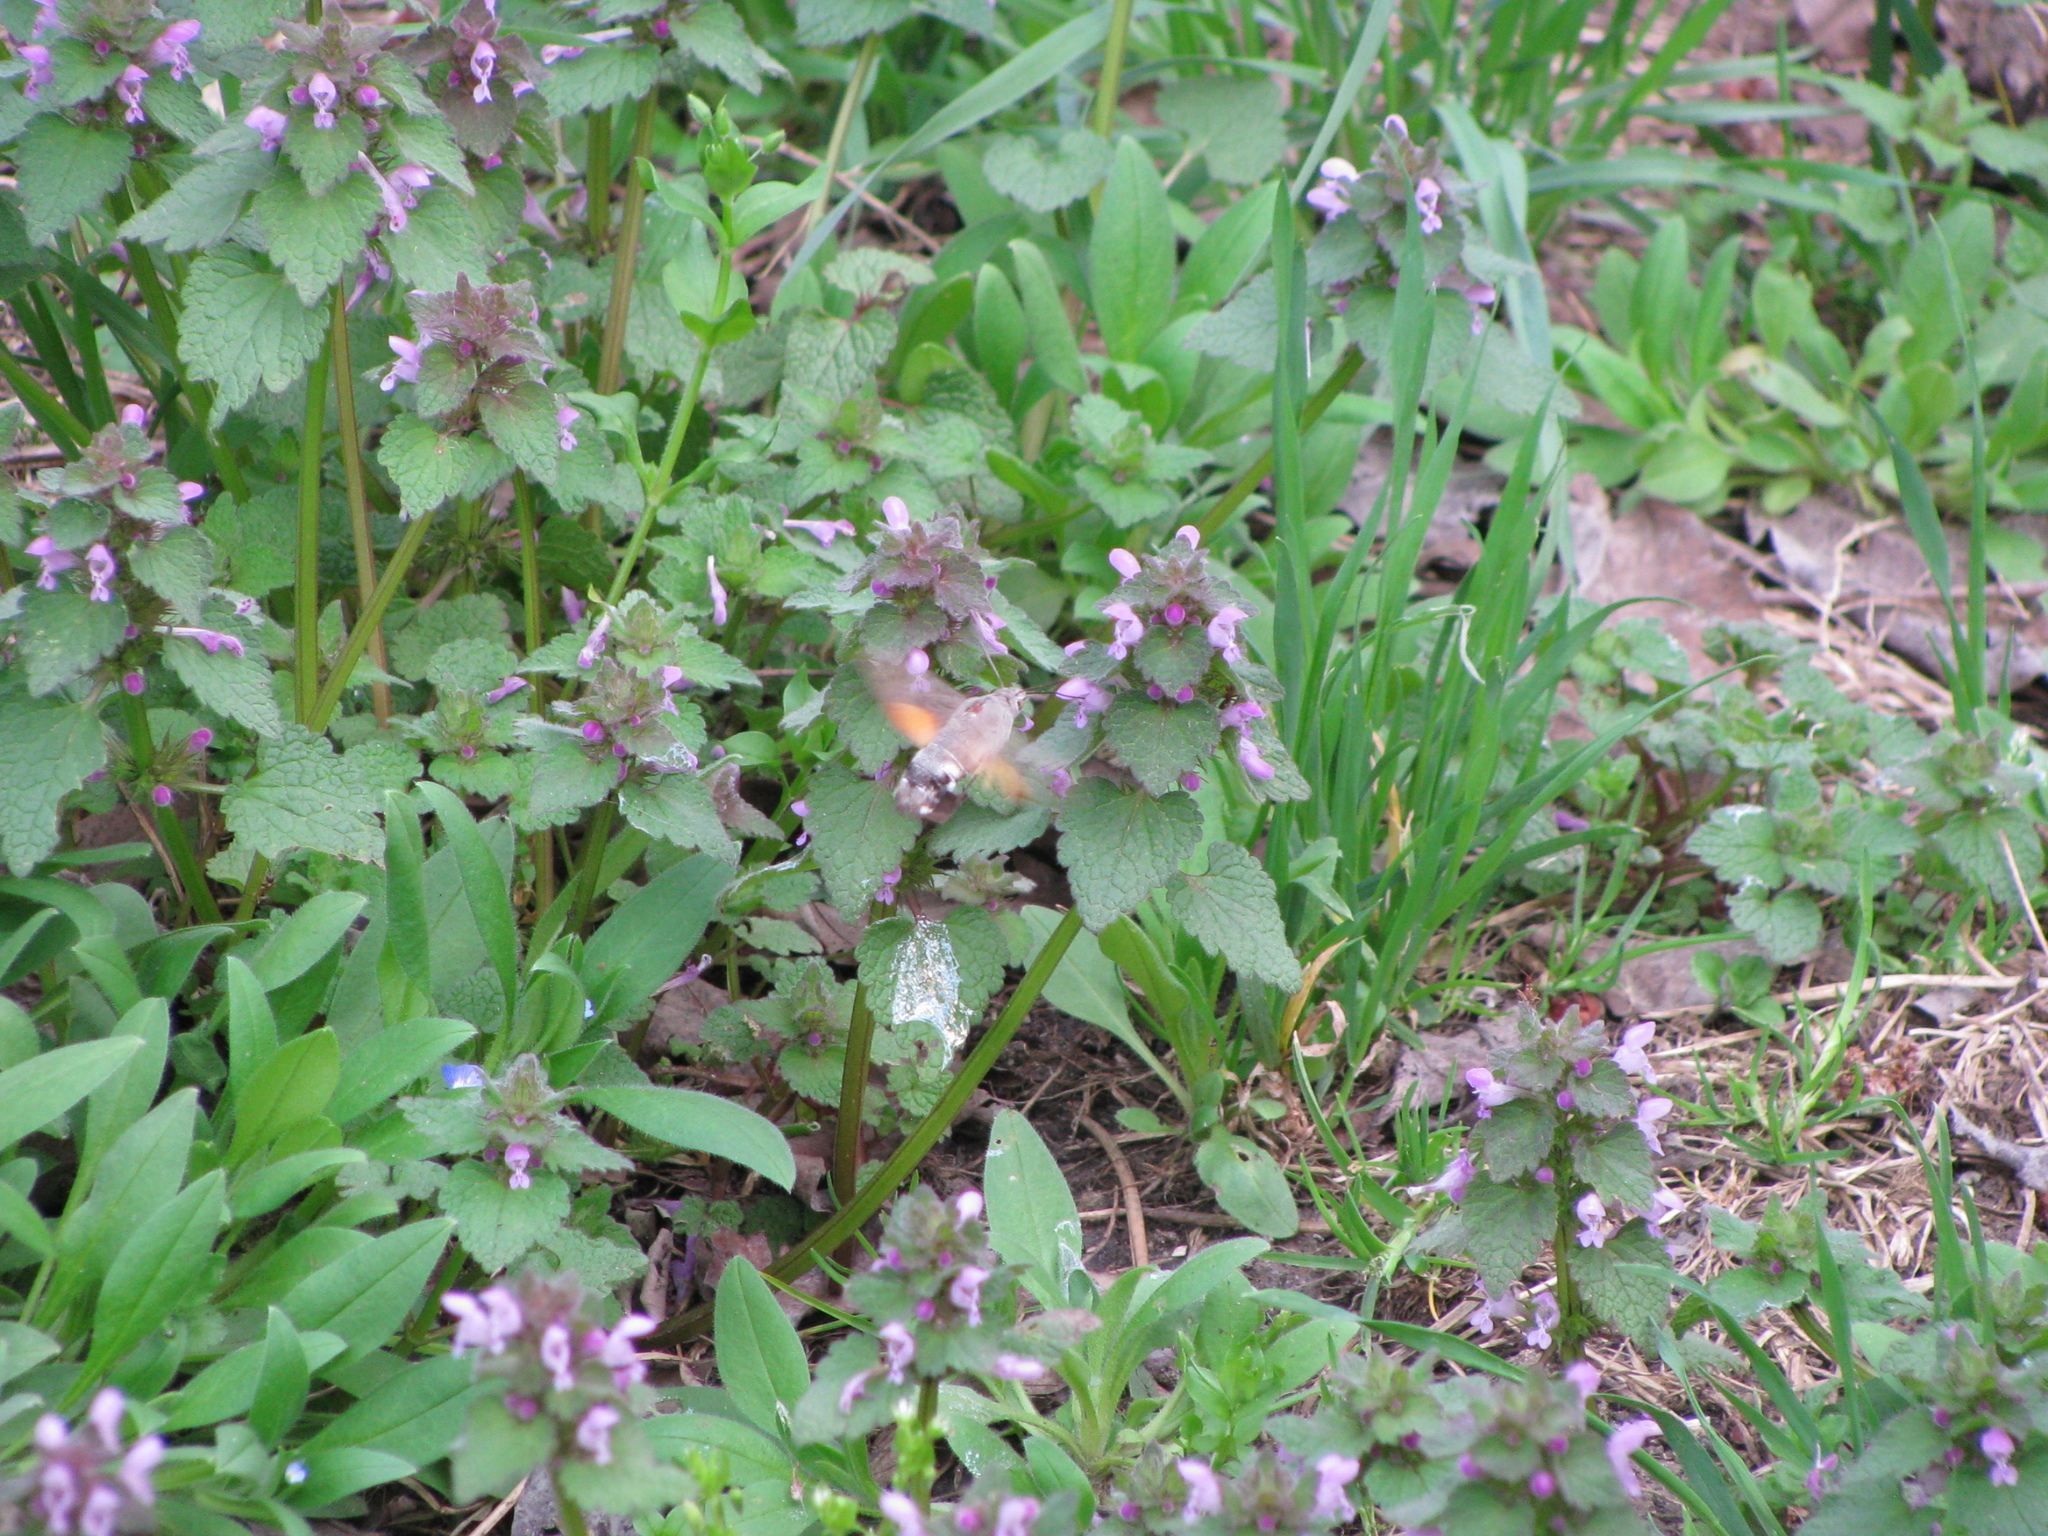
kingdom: Animalia
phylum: Arthropoda
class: Insecta
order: Lepidoptera
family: Sphingidae
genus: Macroglossum
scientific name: Macroglossum stellatarum
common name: Humming-bird hawk-moth
